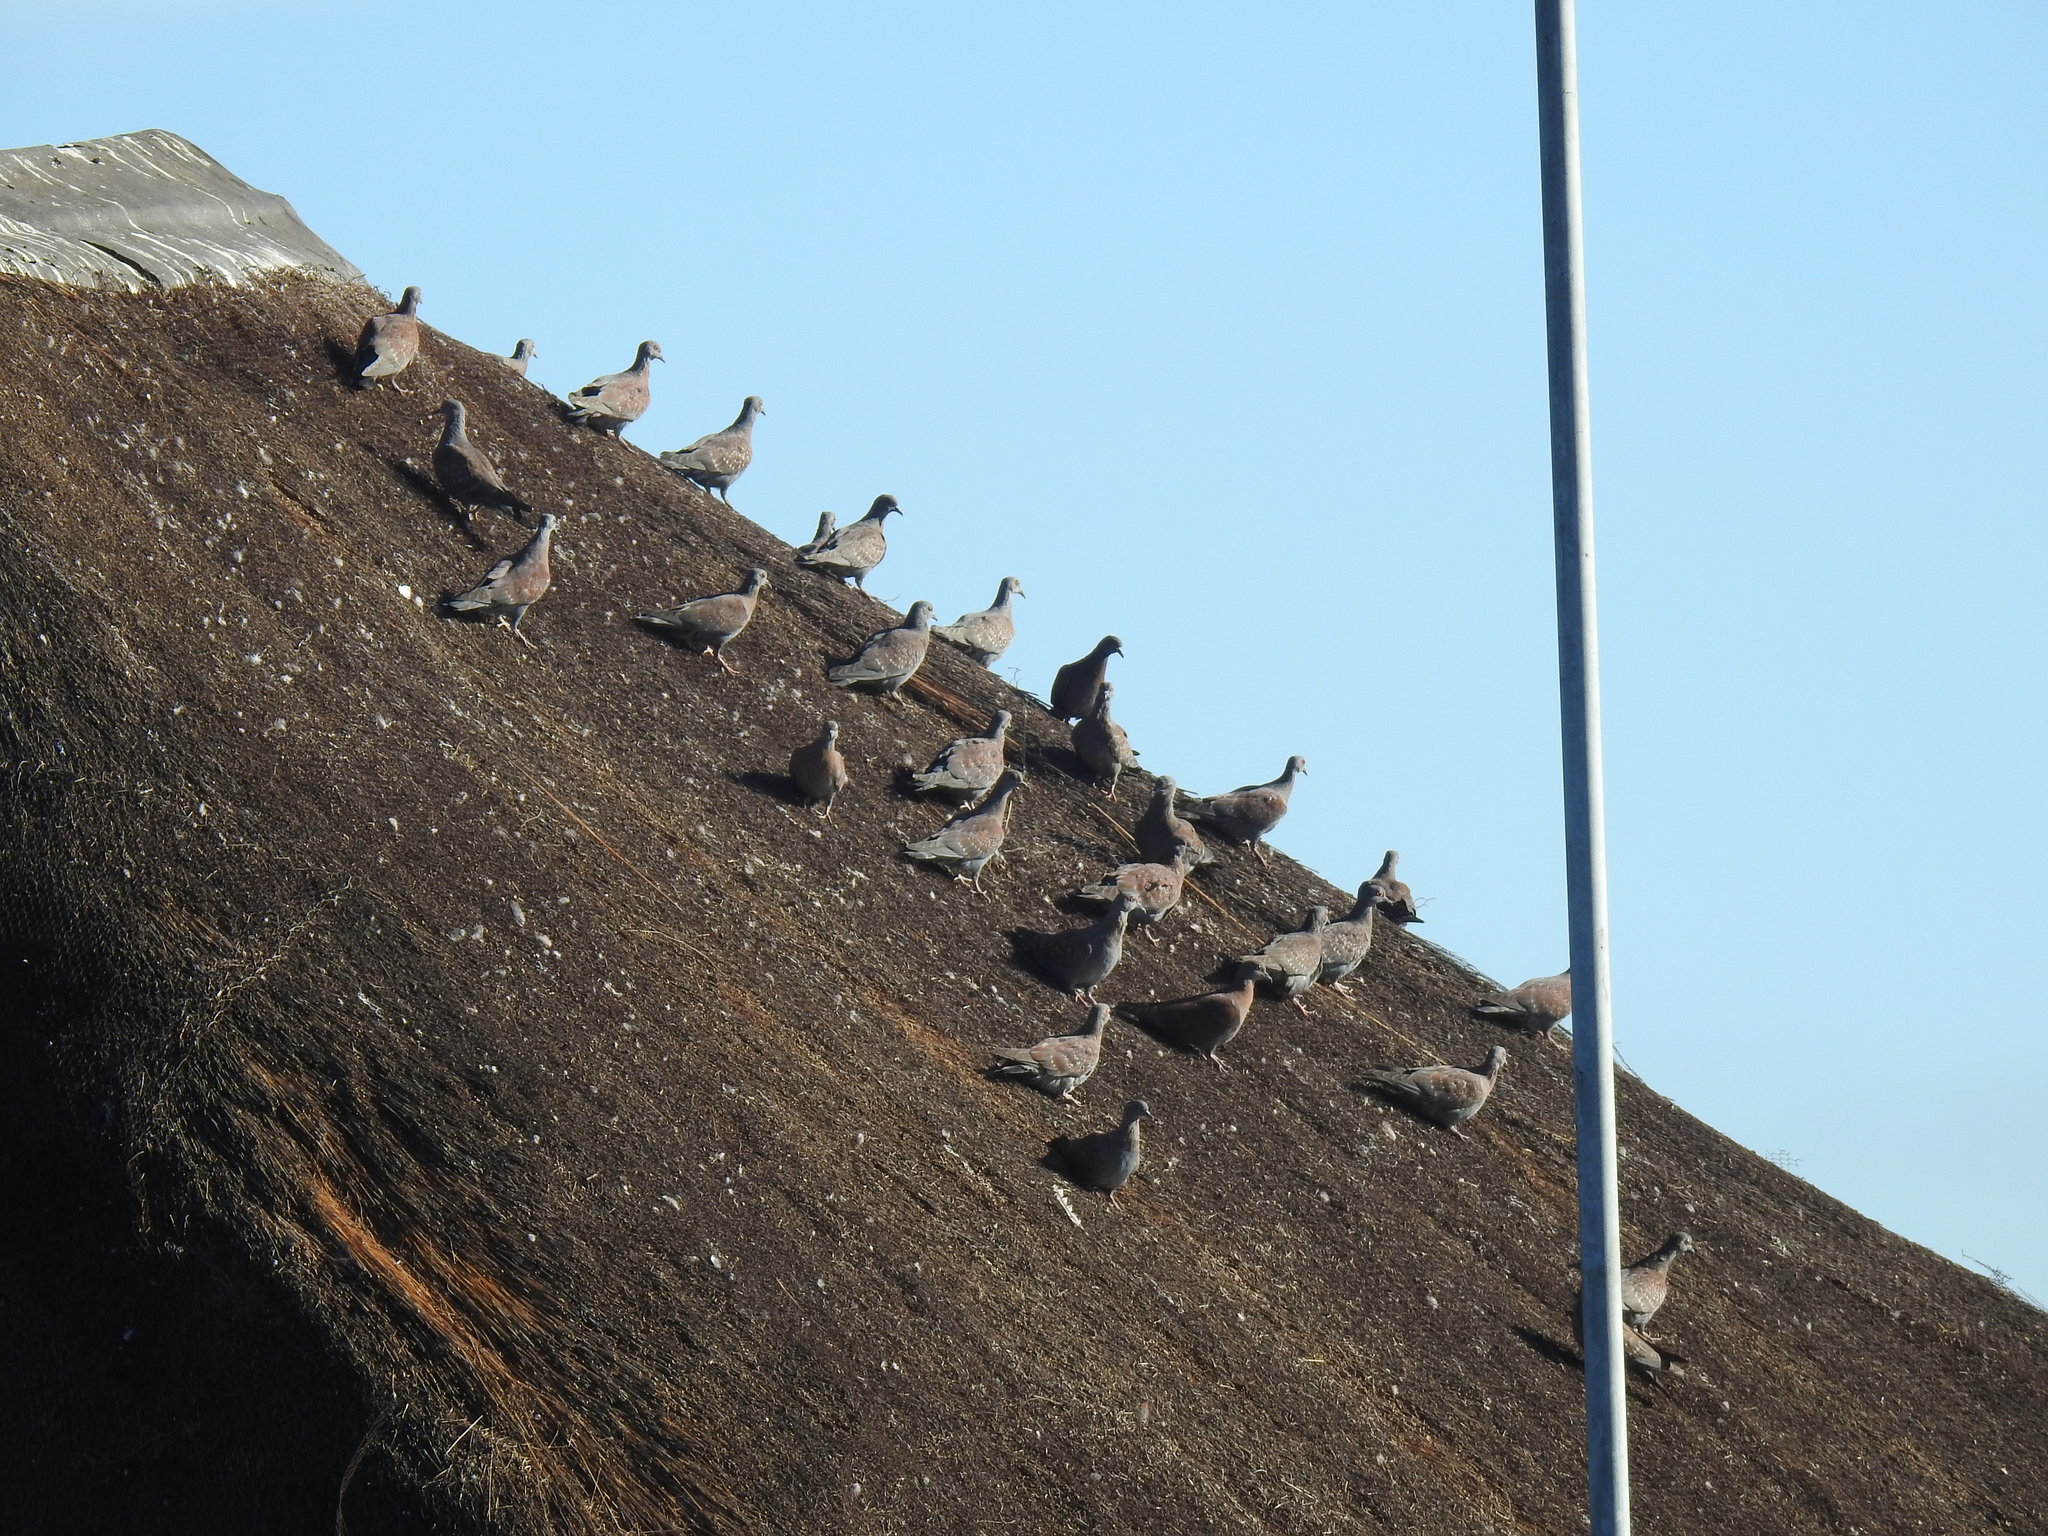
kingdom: Animalia
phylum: Chordata
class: Aves
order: Columbiformes
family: Columbidae
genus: Columba
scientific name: Columba guinea
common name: Speckled pigeon
